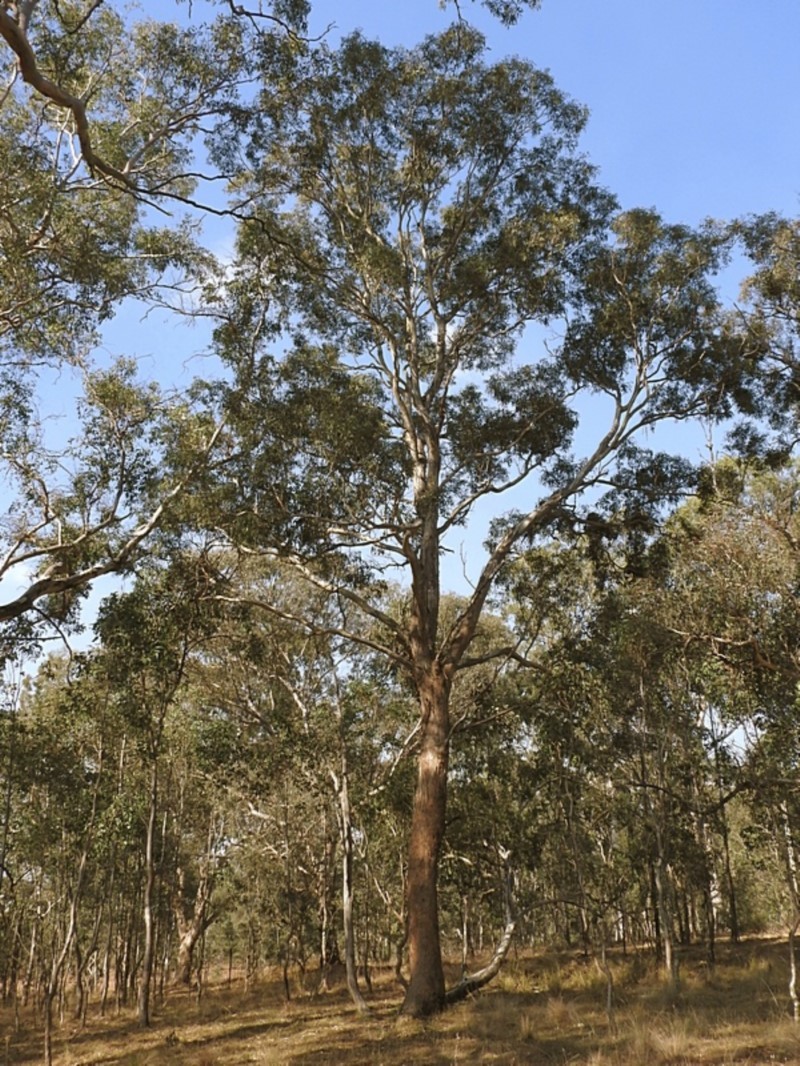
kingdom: Plantae
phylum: Tracheophyta
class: Magnoliopsida
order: Myrtales
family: Myrtaceae
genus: Eucalyptus
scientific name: Eucalyptus melliodora
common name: Yellow ironbox
